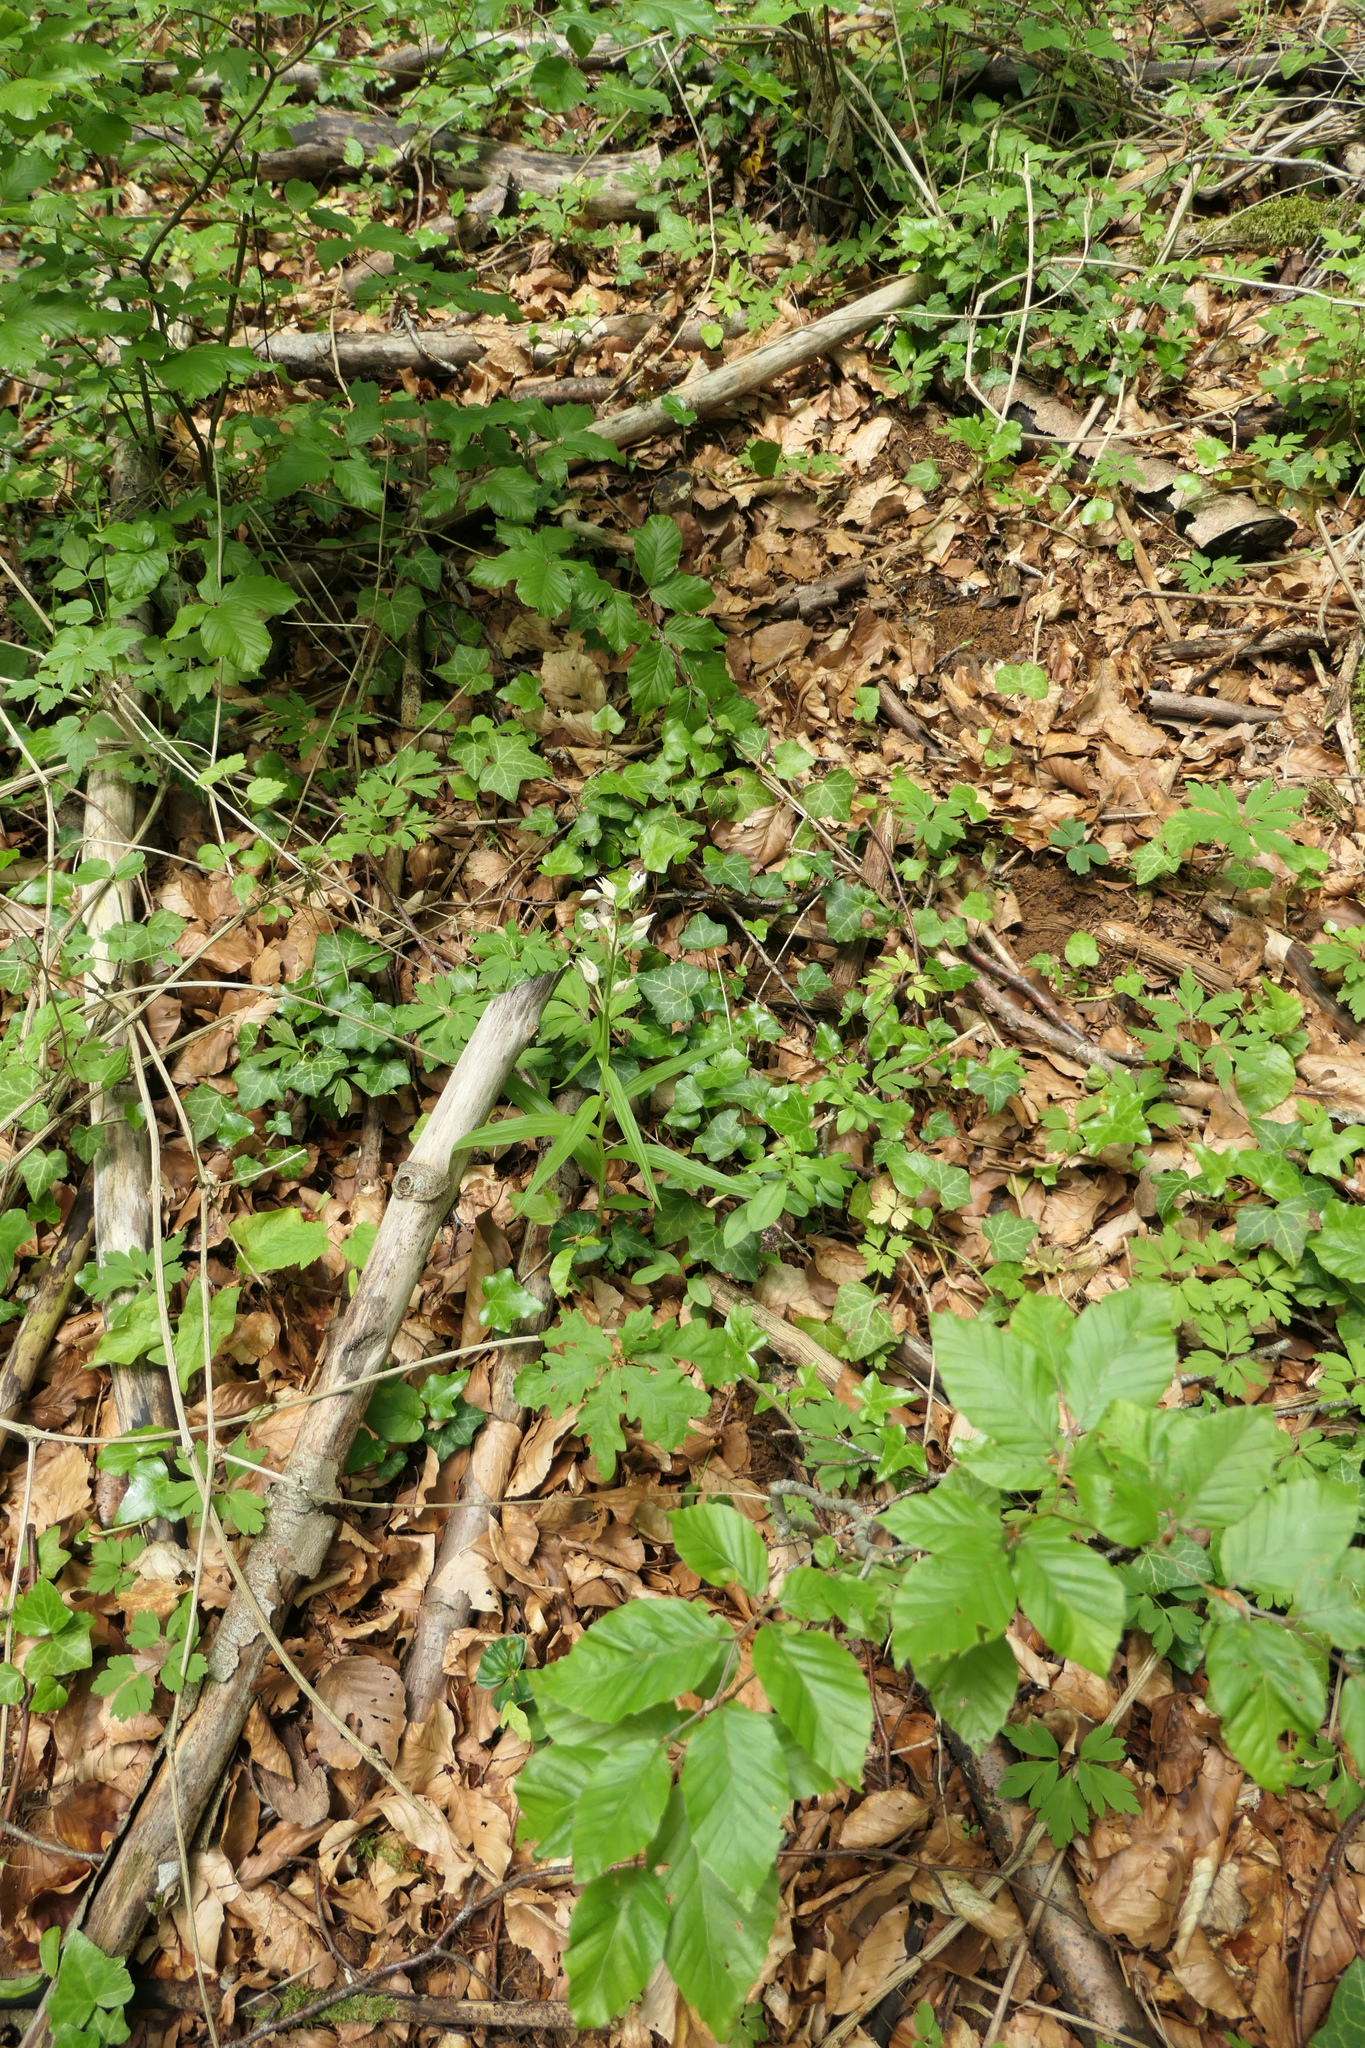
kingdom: Plantae
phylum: Tracheophyta
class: Liliopsida
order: Asparagales
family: Orchidaceae
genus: Cephalanthera
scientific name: Cephalanthera longifolia
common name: Narrow-leaved helleborine
